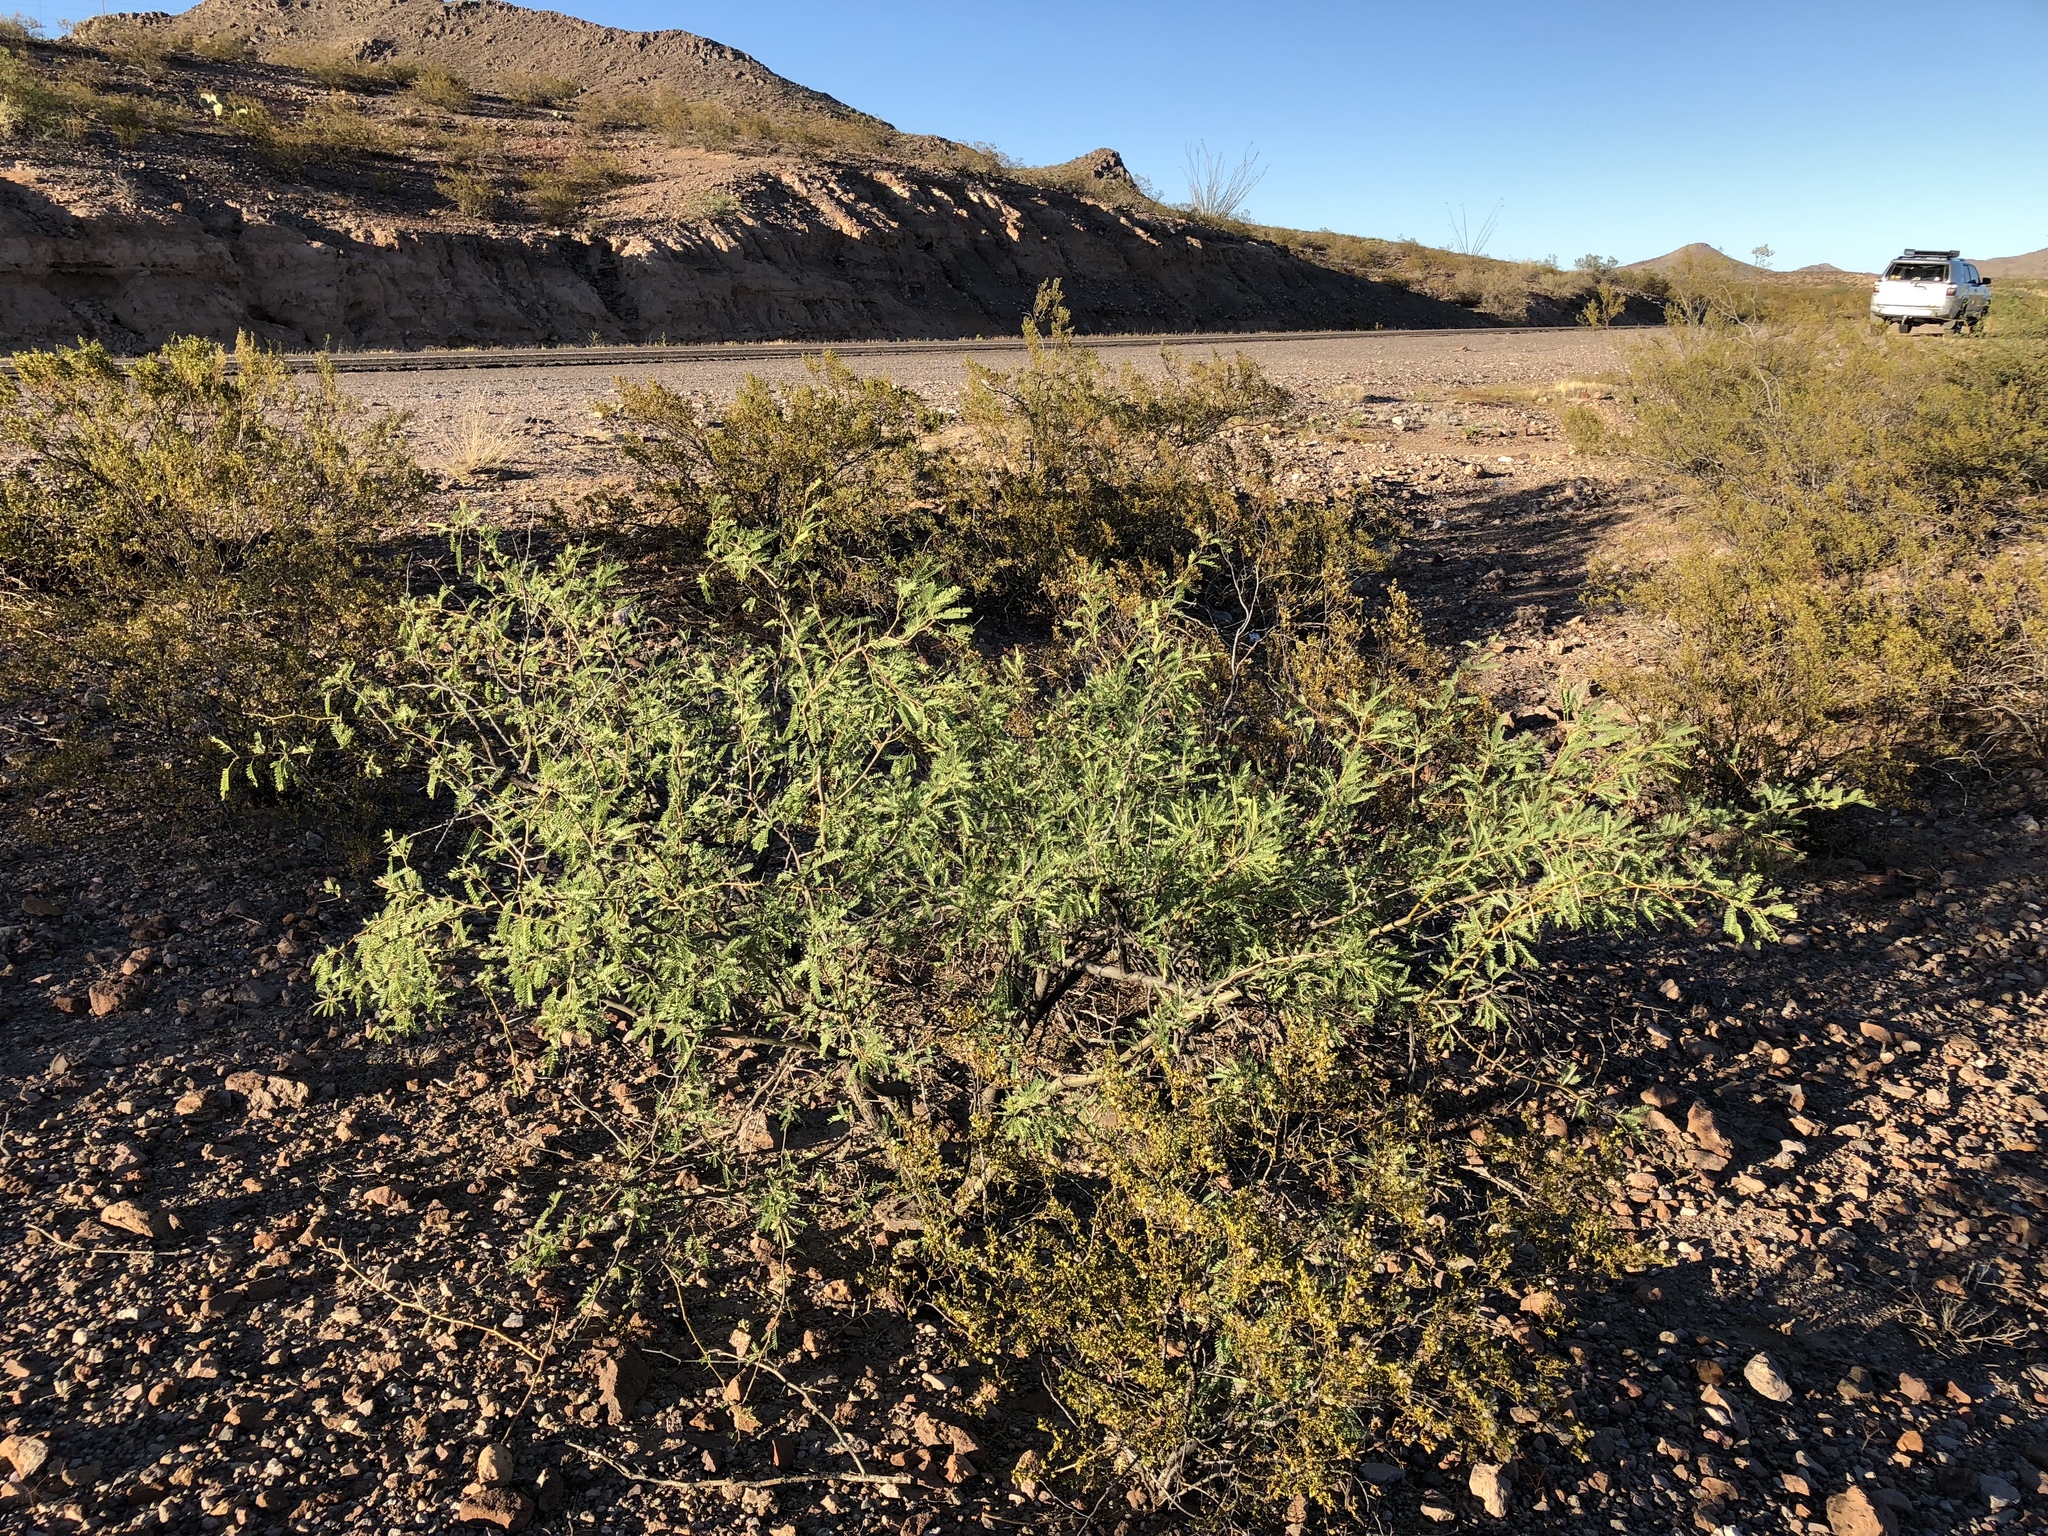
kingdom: Plantae
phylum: Tracheophyta
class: Magnoliopsida
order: Fabales
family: Fabaceae
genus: Prosopis
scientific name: Prosopis velutina
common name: Velvet mesquite
